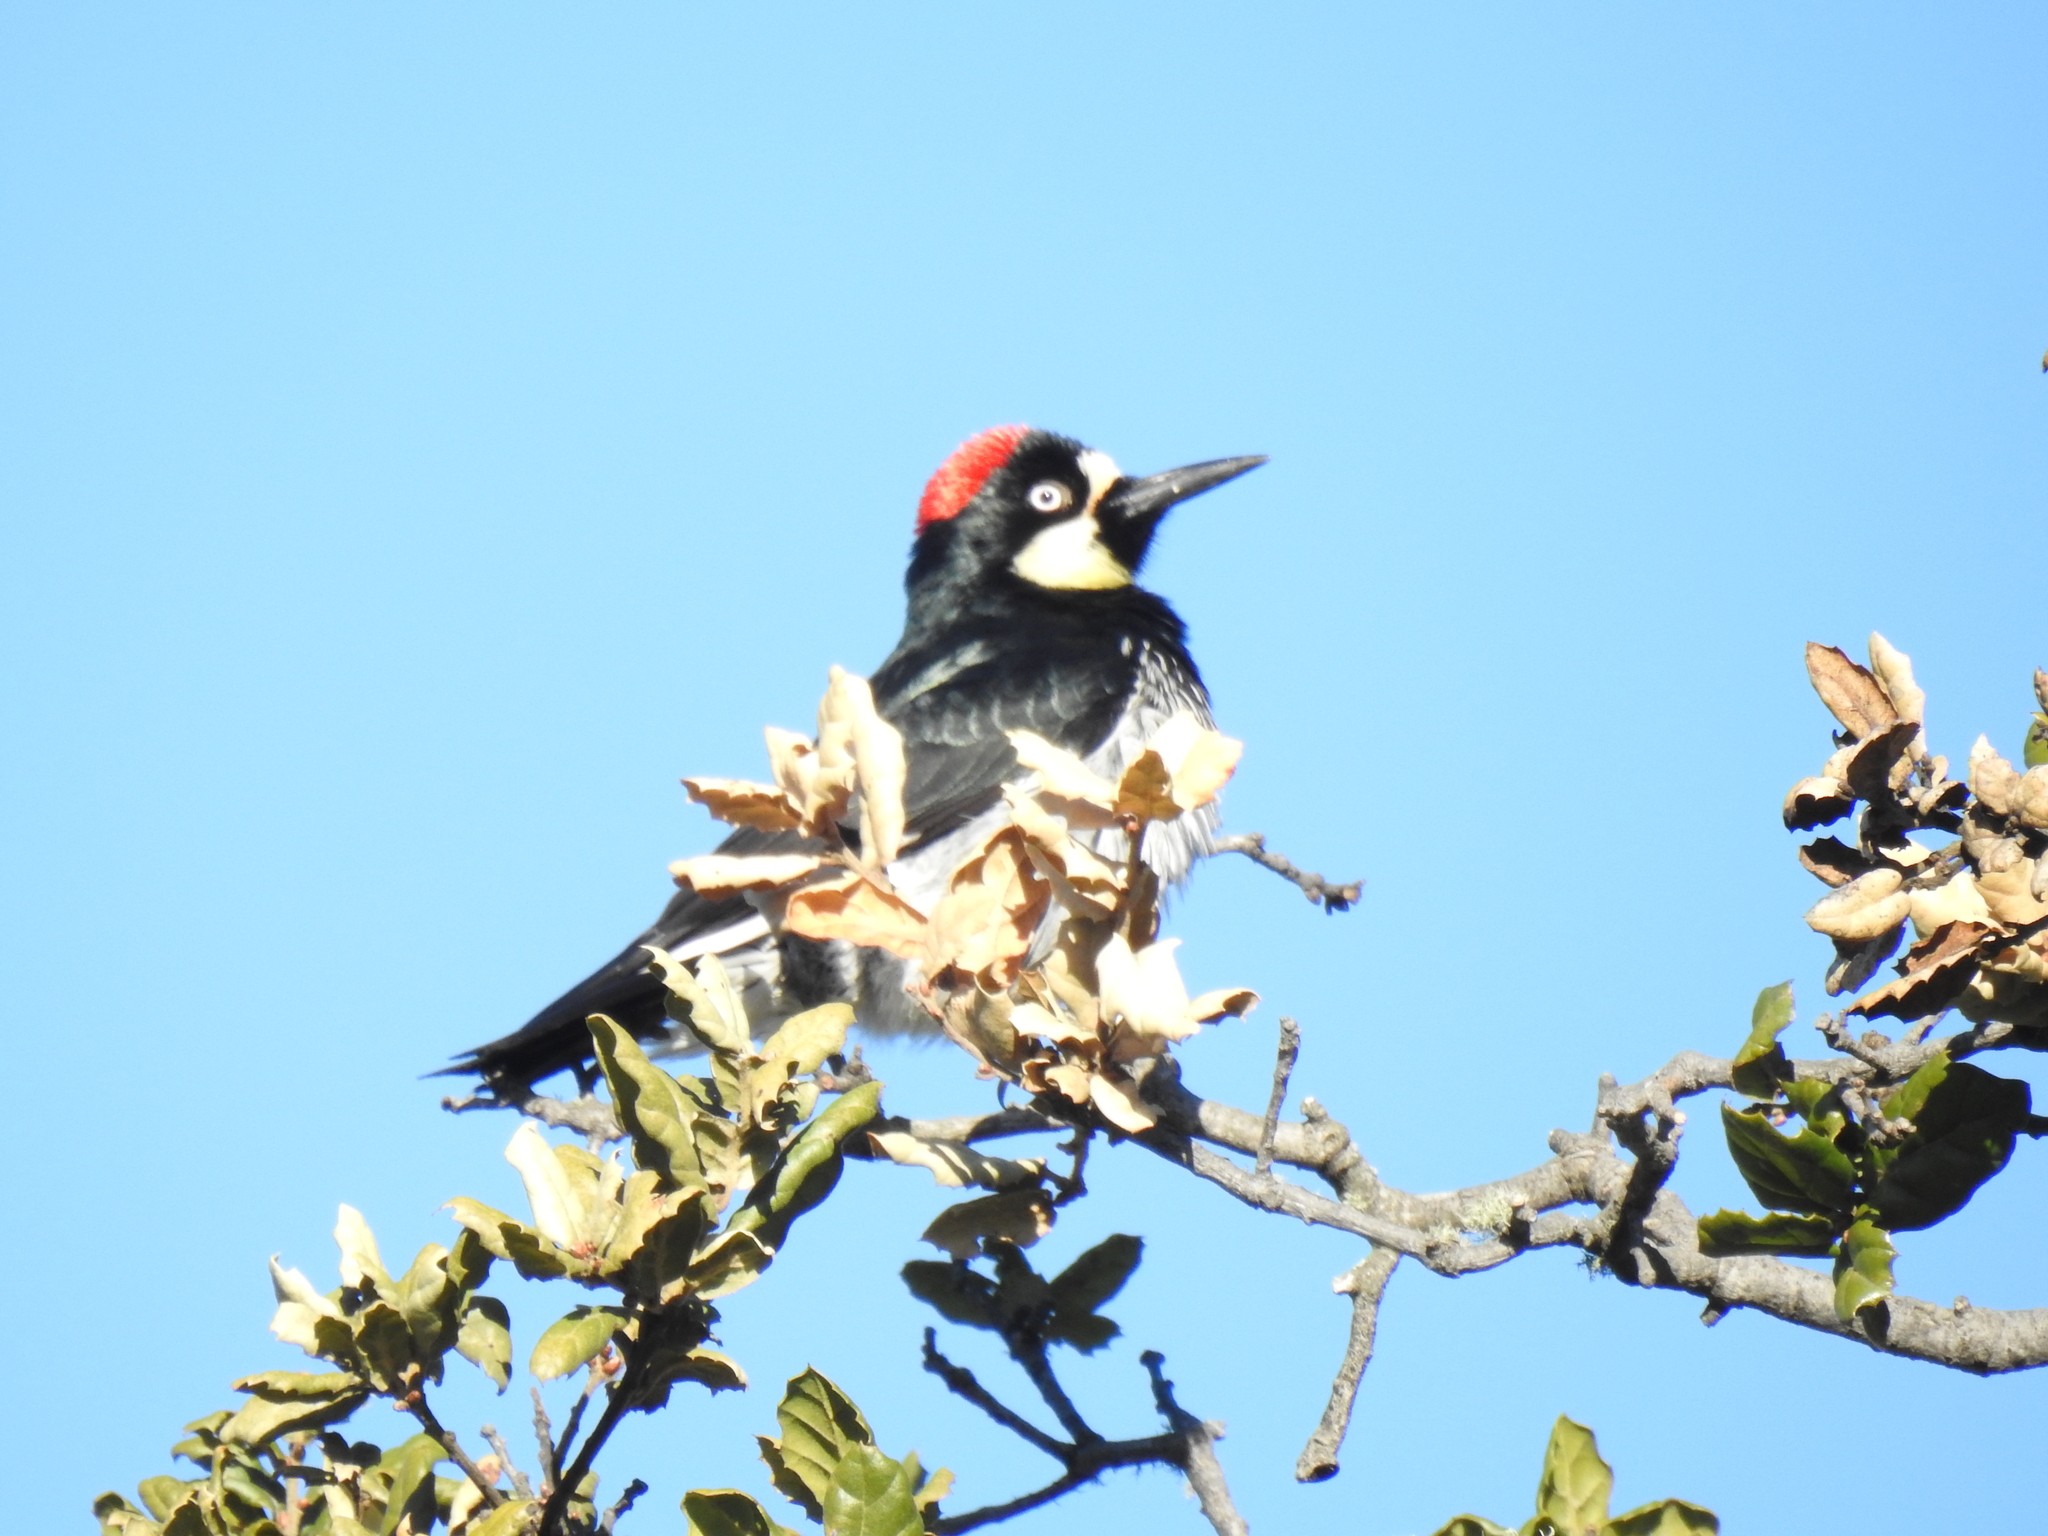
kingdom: Animalia
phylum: Chordata
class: Aves
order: Piciformes
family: Picidae
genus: Melanerpes
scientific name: Melanerpes formicivorus
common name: Acorn woodpecker
